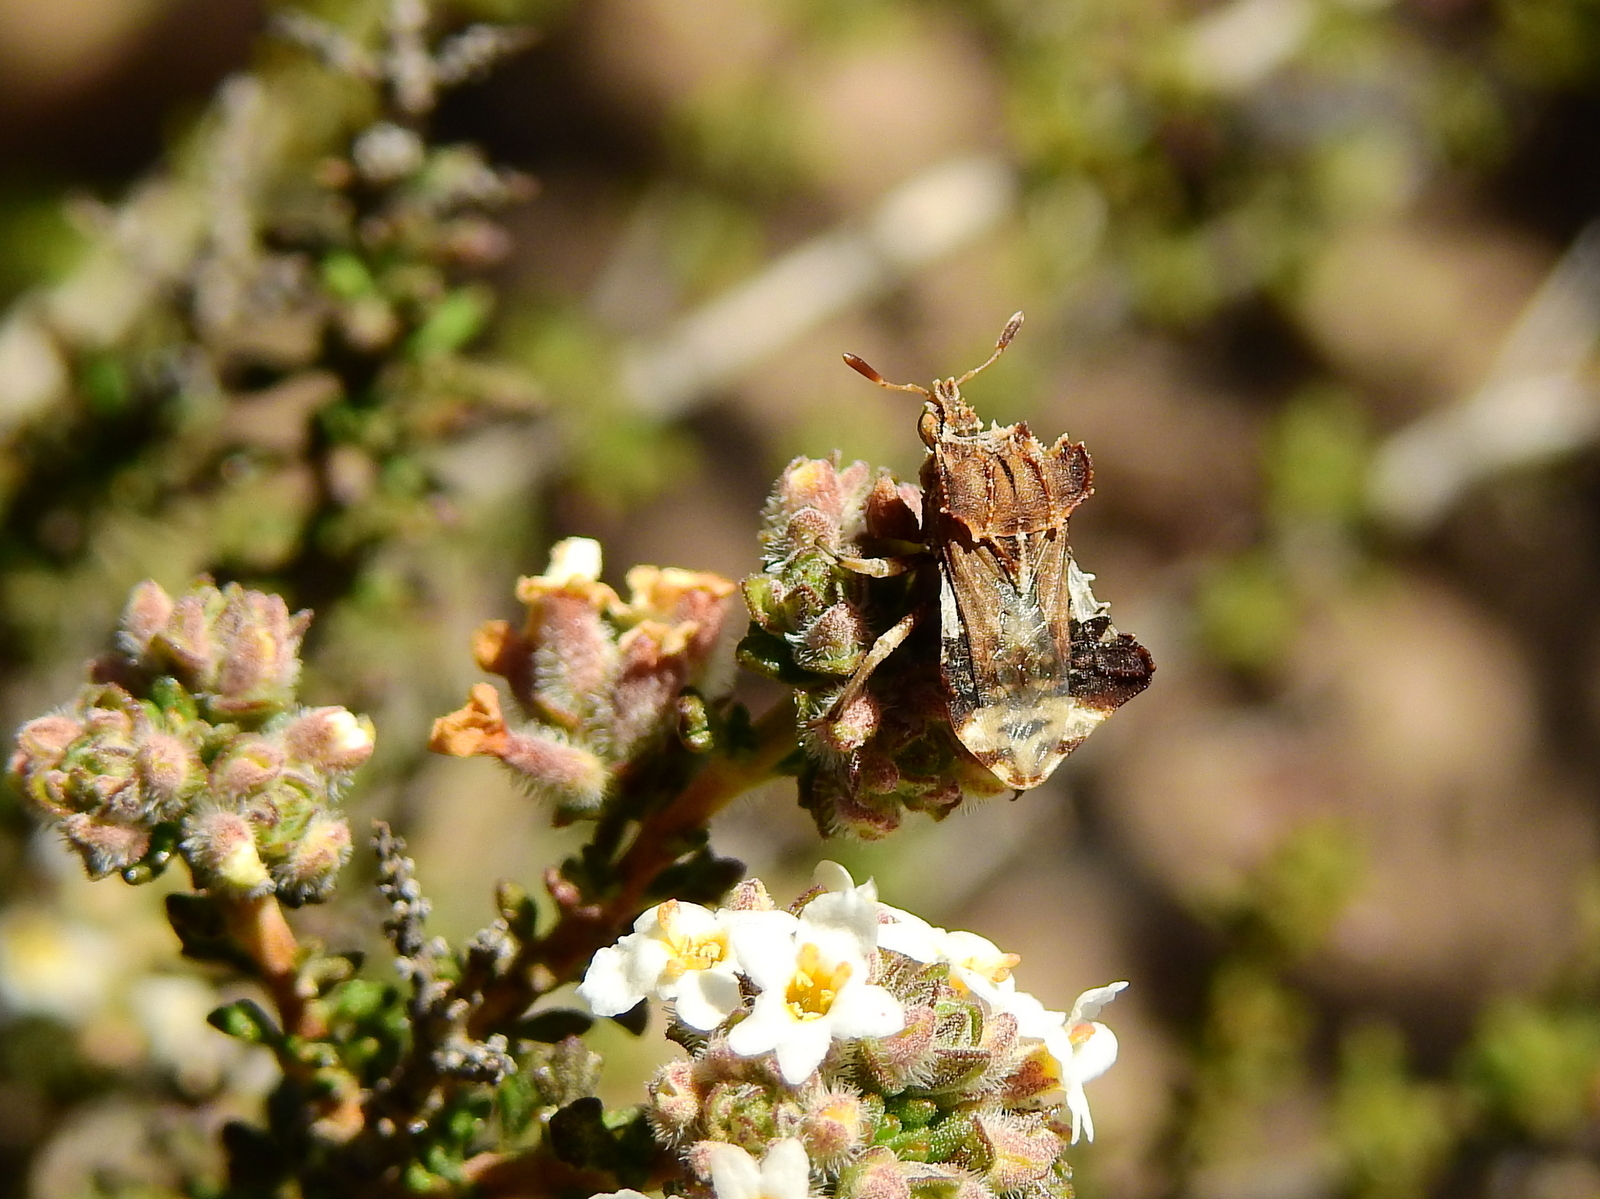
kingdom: Animalia
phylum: Arthropoda
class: Insecta
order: Hemiptera
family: Reduviidae
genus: Phymata
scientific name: Phymata fortificata
